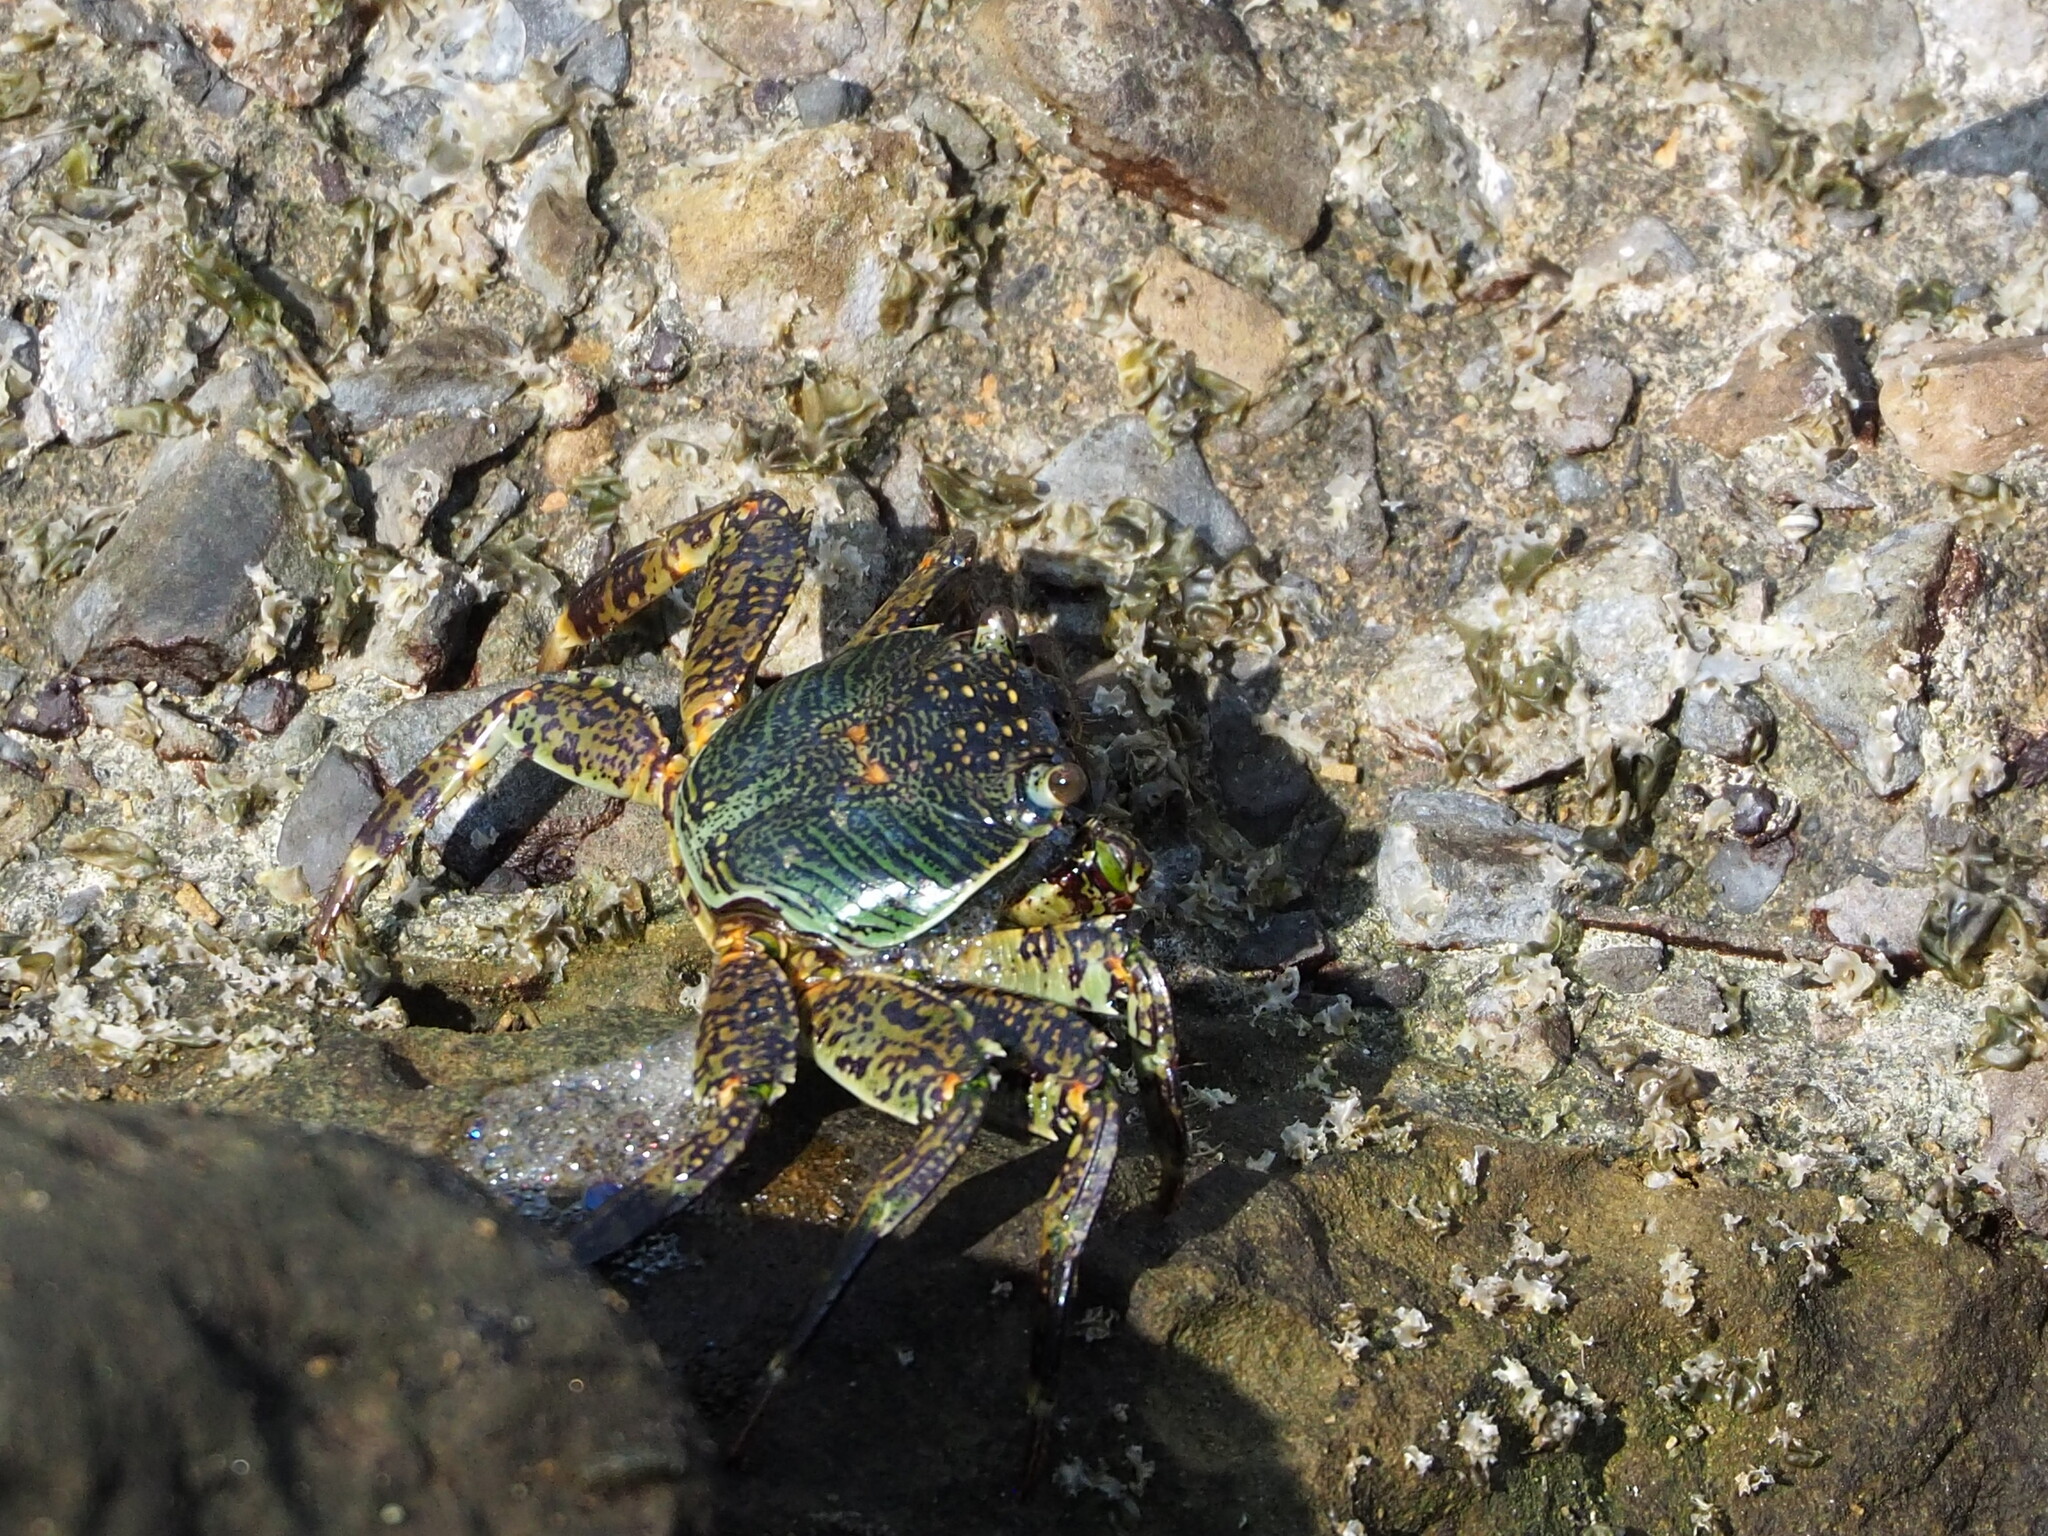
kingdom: Animalia
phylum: Arthropoda
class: Malacostraca
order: Decapoda
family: Grapsidae
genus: Grapsus
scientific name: Grapsus albolineatus
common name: Mottled lightfoot crab
